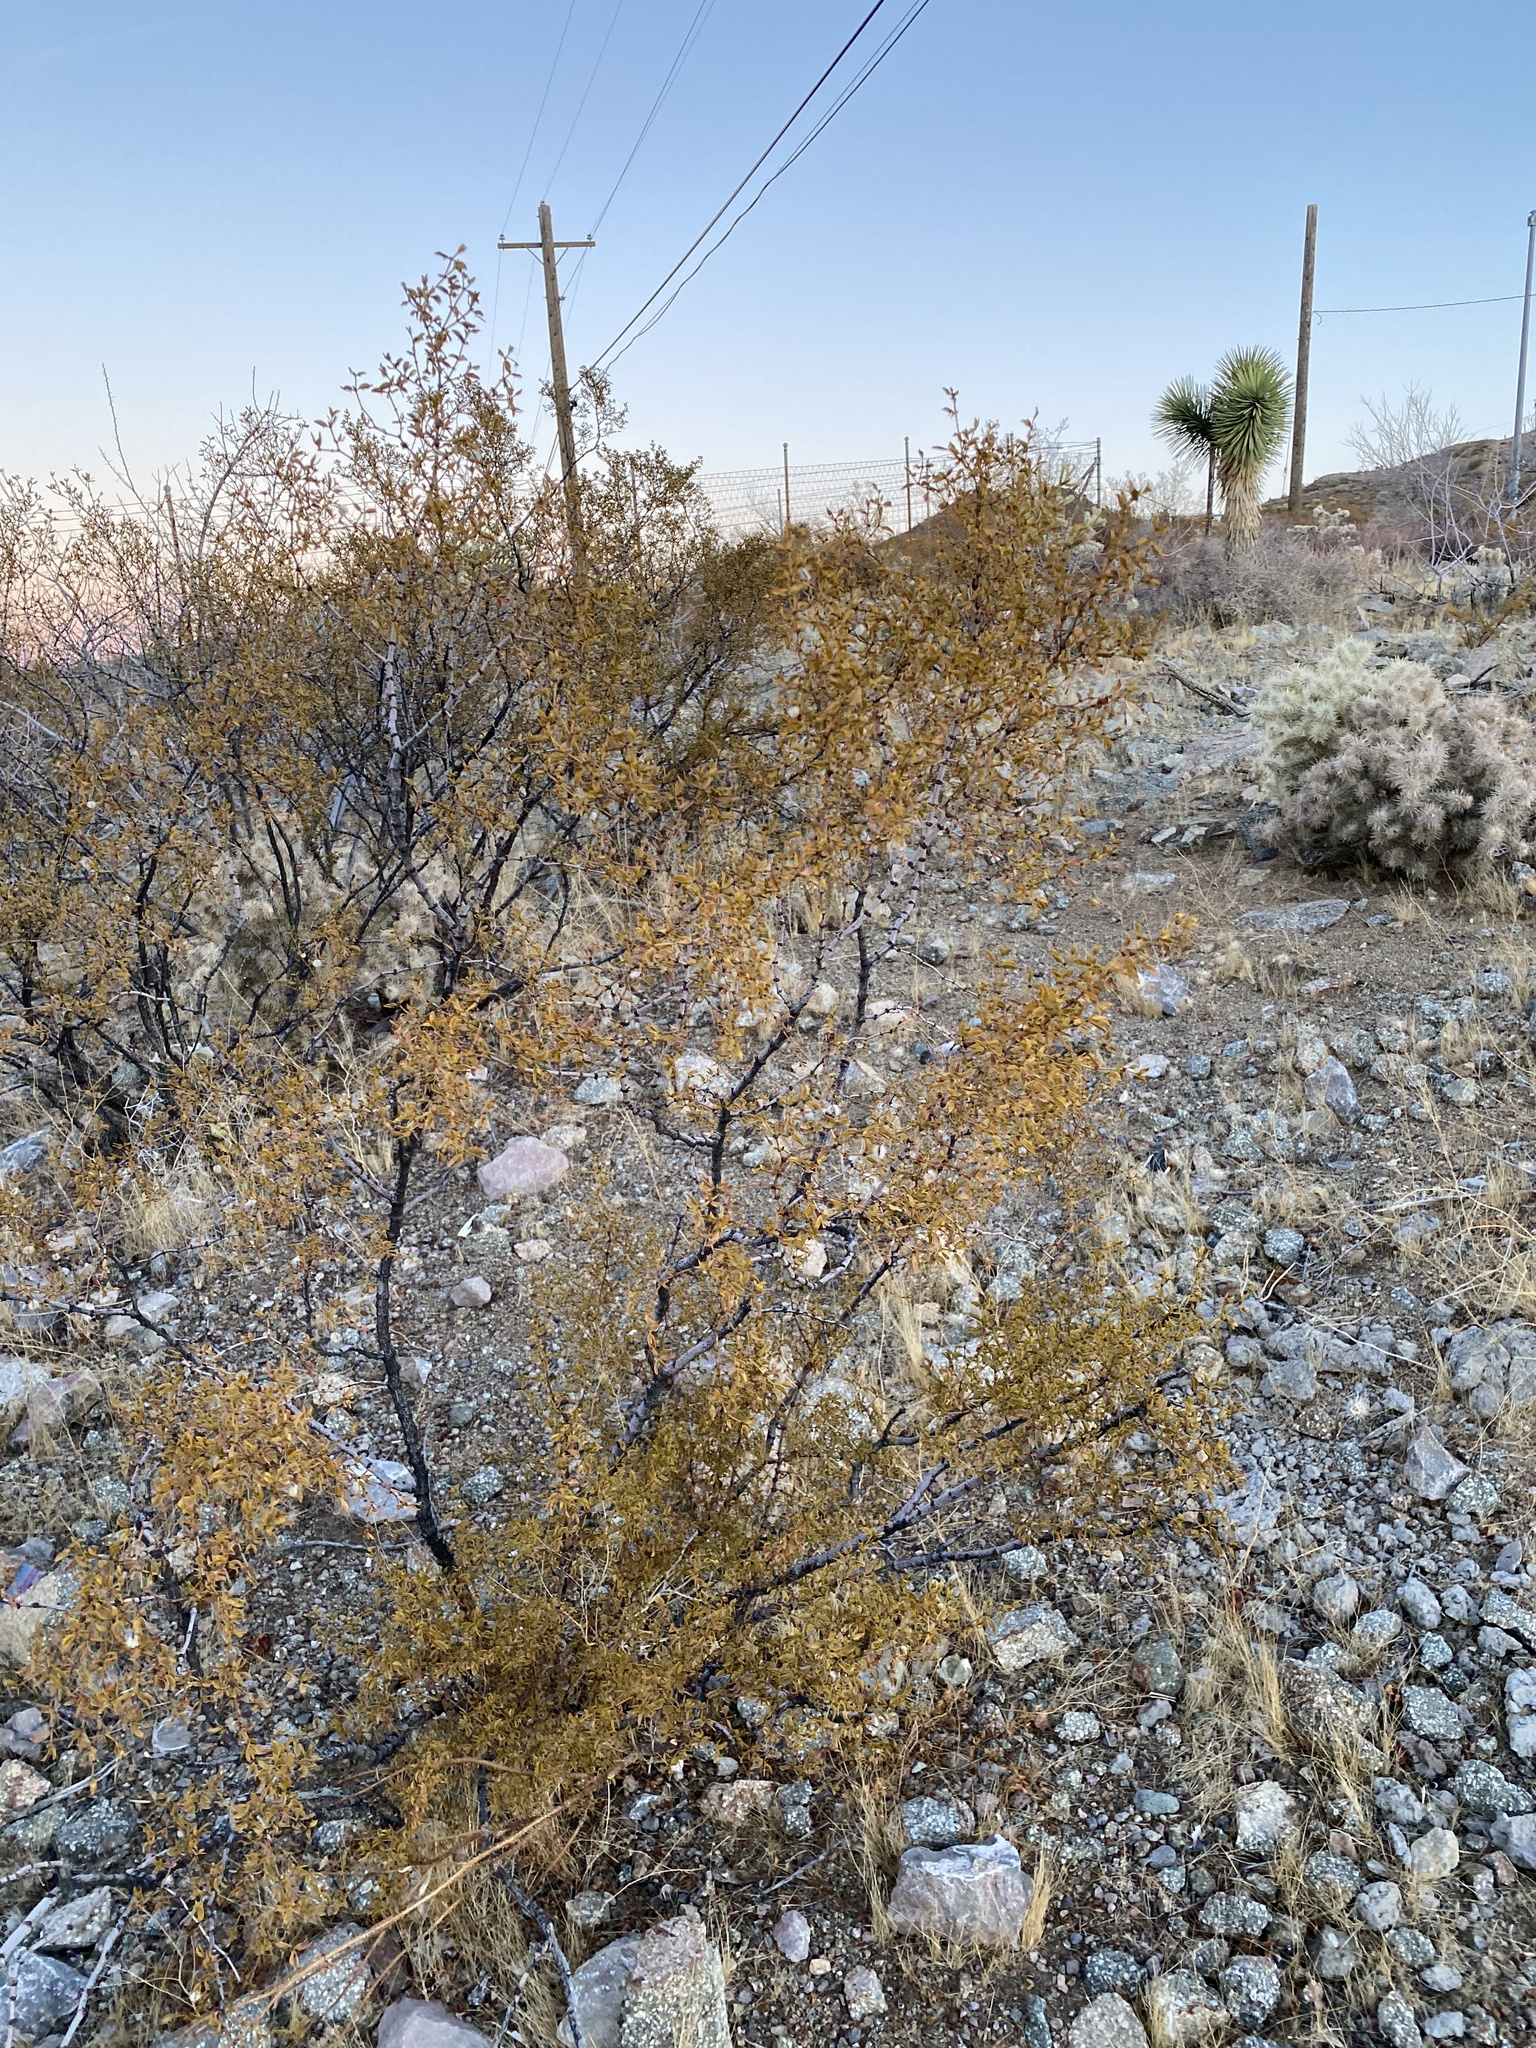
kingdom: Plantae
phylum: Tracheophyta
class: Magnoliopsida
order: Zygophyllales
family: Zygophyllaceae
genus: Larrea
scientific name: Larrea tridentata
